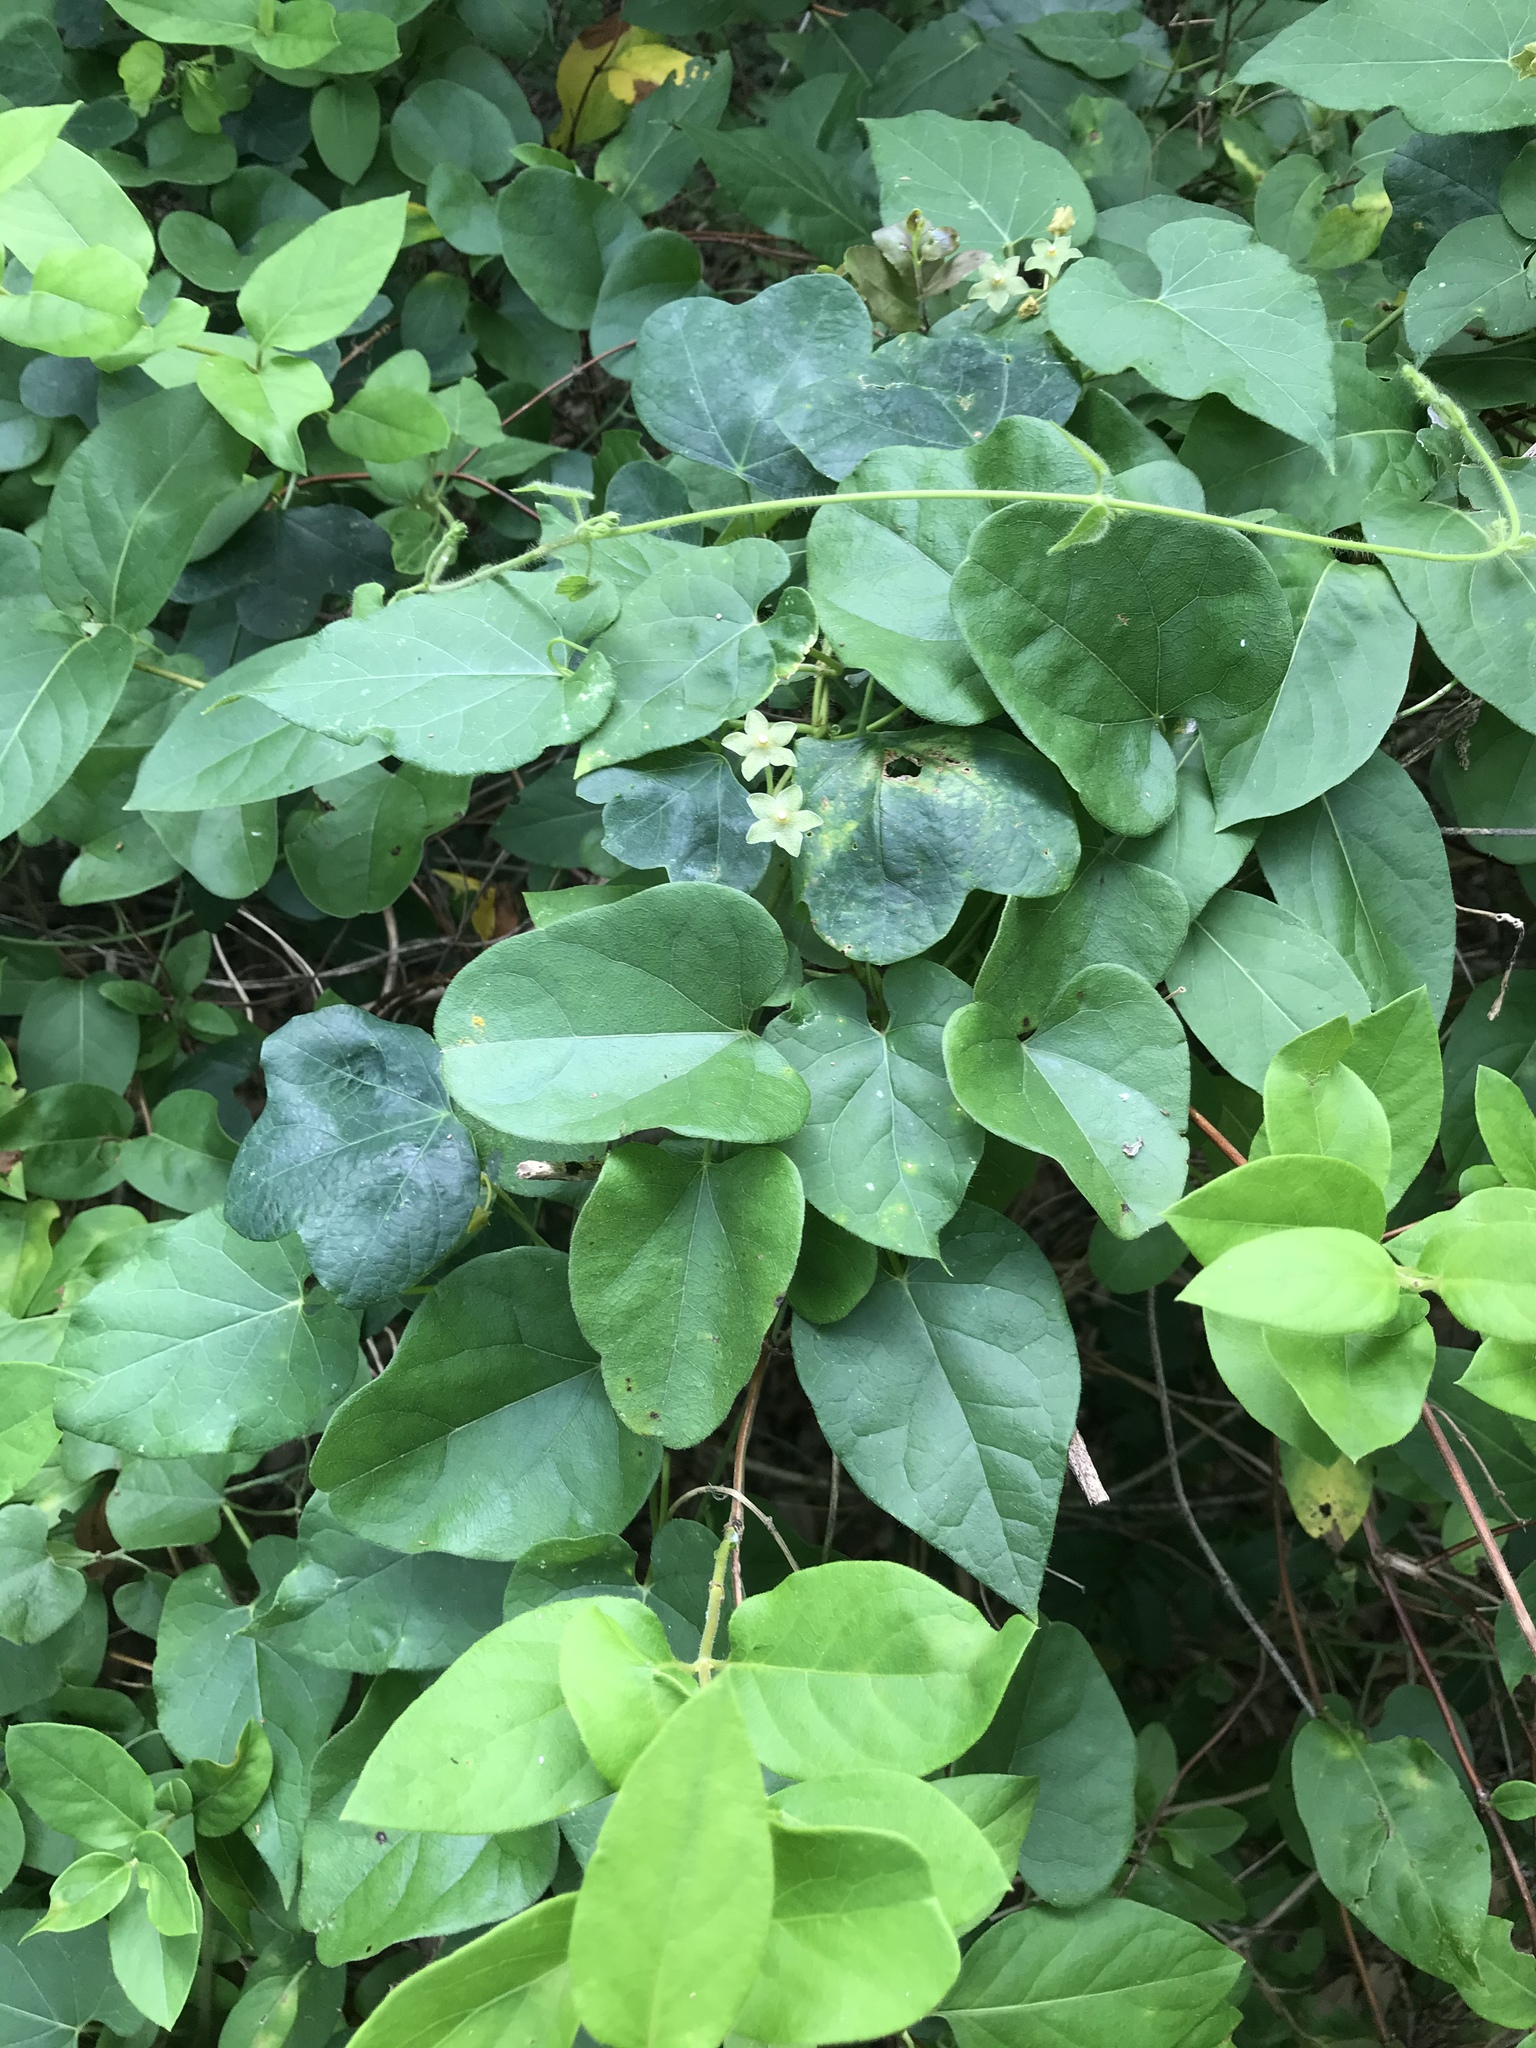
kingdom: Plantae
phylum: Tracheophyta
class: Magnoliopsida
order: Gentianales
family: Apocynaceae
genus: Dictyanthus
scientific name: Dictyanthus reticulatus
